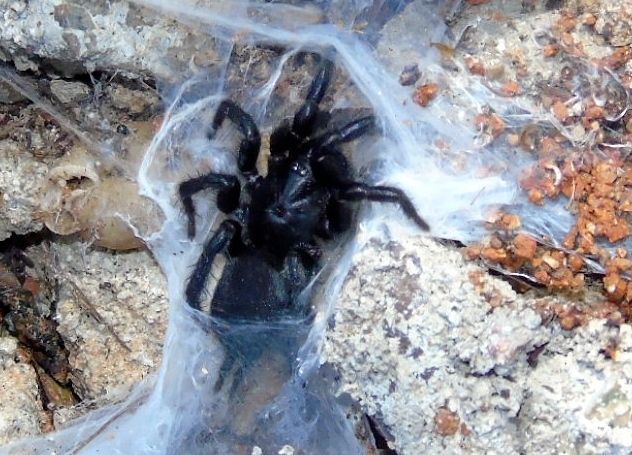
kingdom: Animalia
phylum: Arthropoda
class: Arachnida
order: Araneae
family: Euagridae
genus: Euagrus
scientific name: Euagrus
